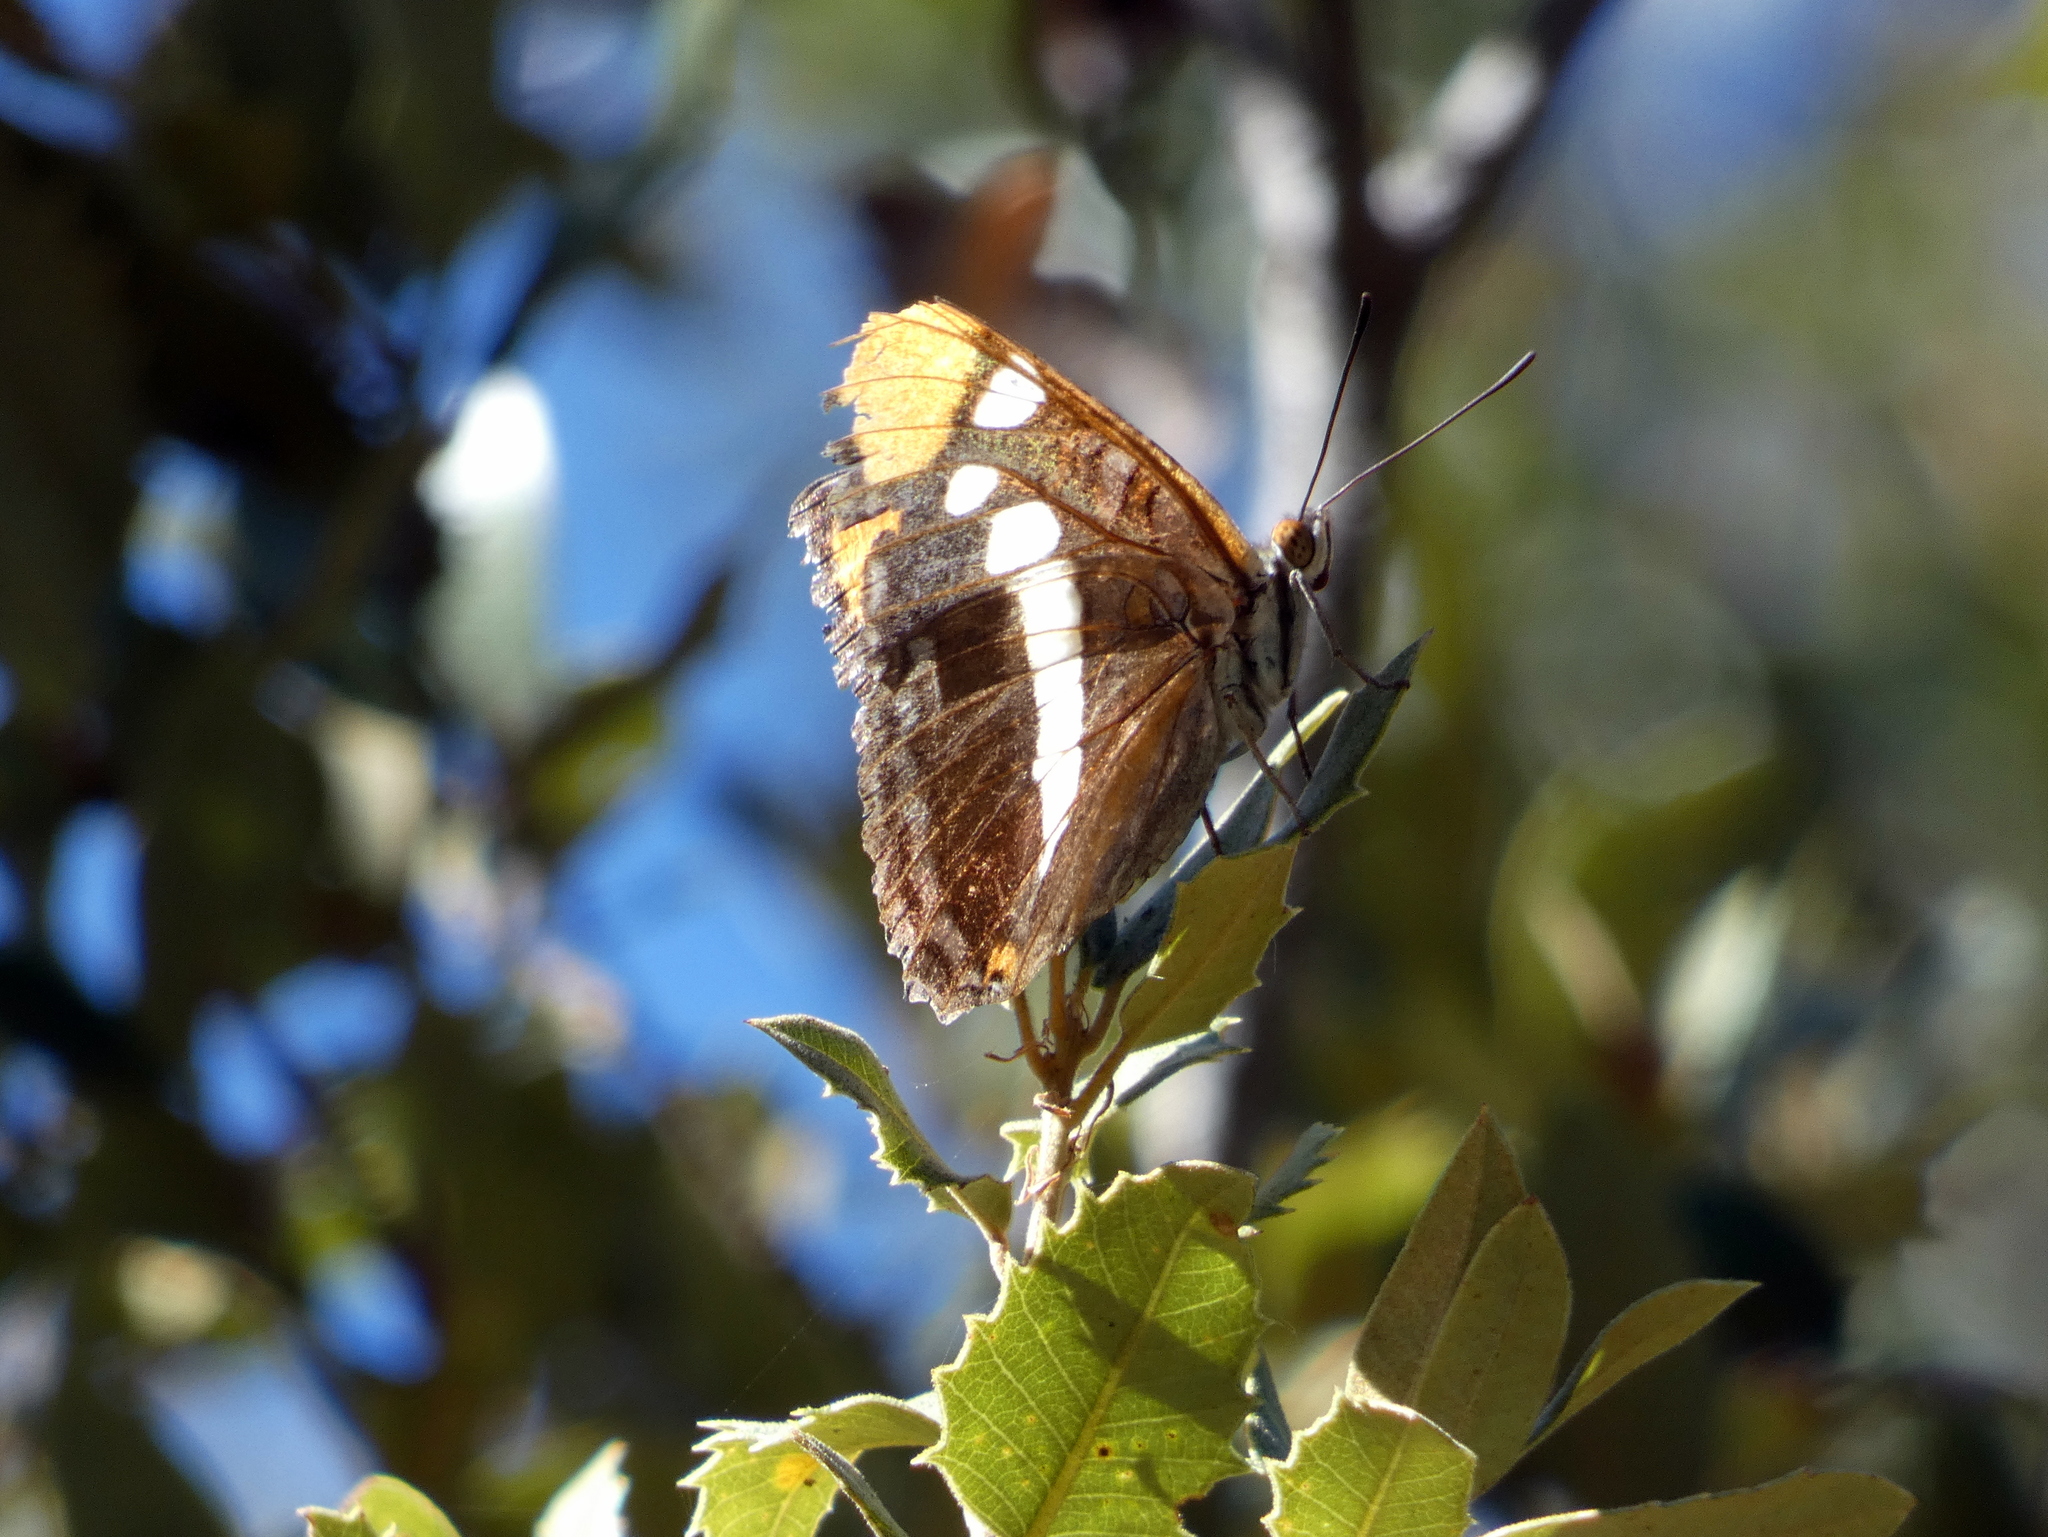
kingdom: Animalia
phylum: Arthropoda
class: Insecta
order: Lepidoptera
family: Nymphalidae
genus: Limenitis
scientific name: Limenitis bredowii
